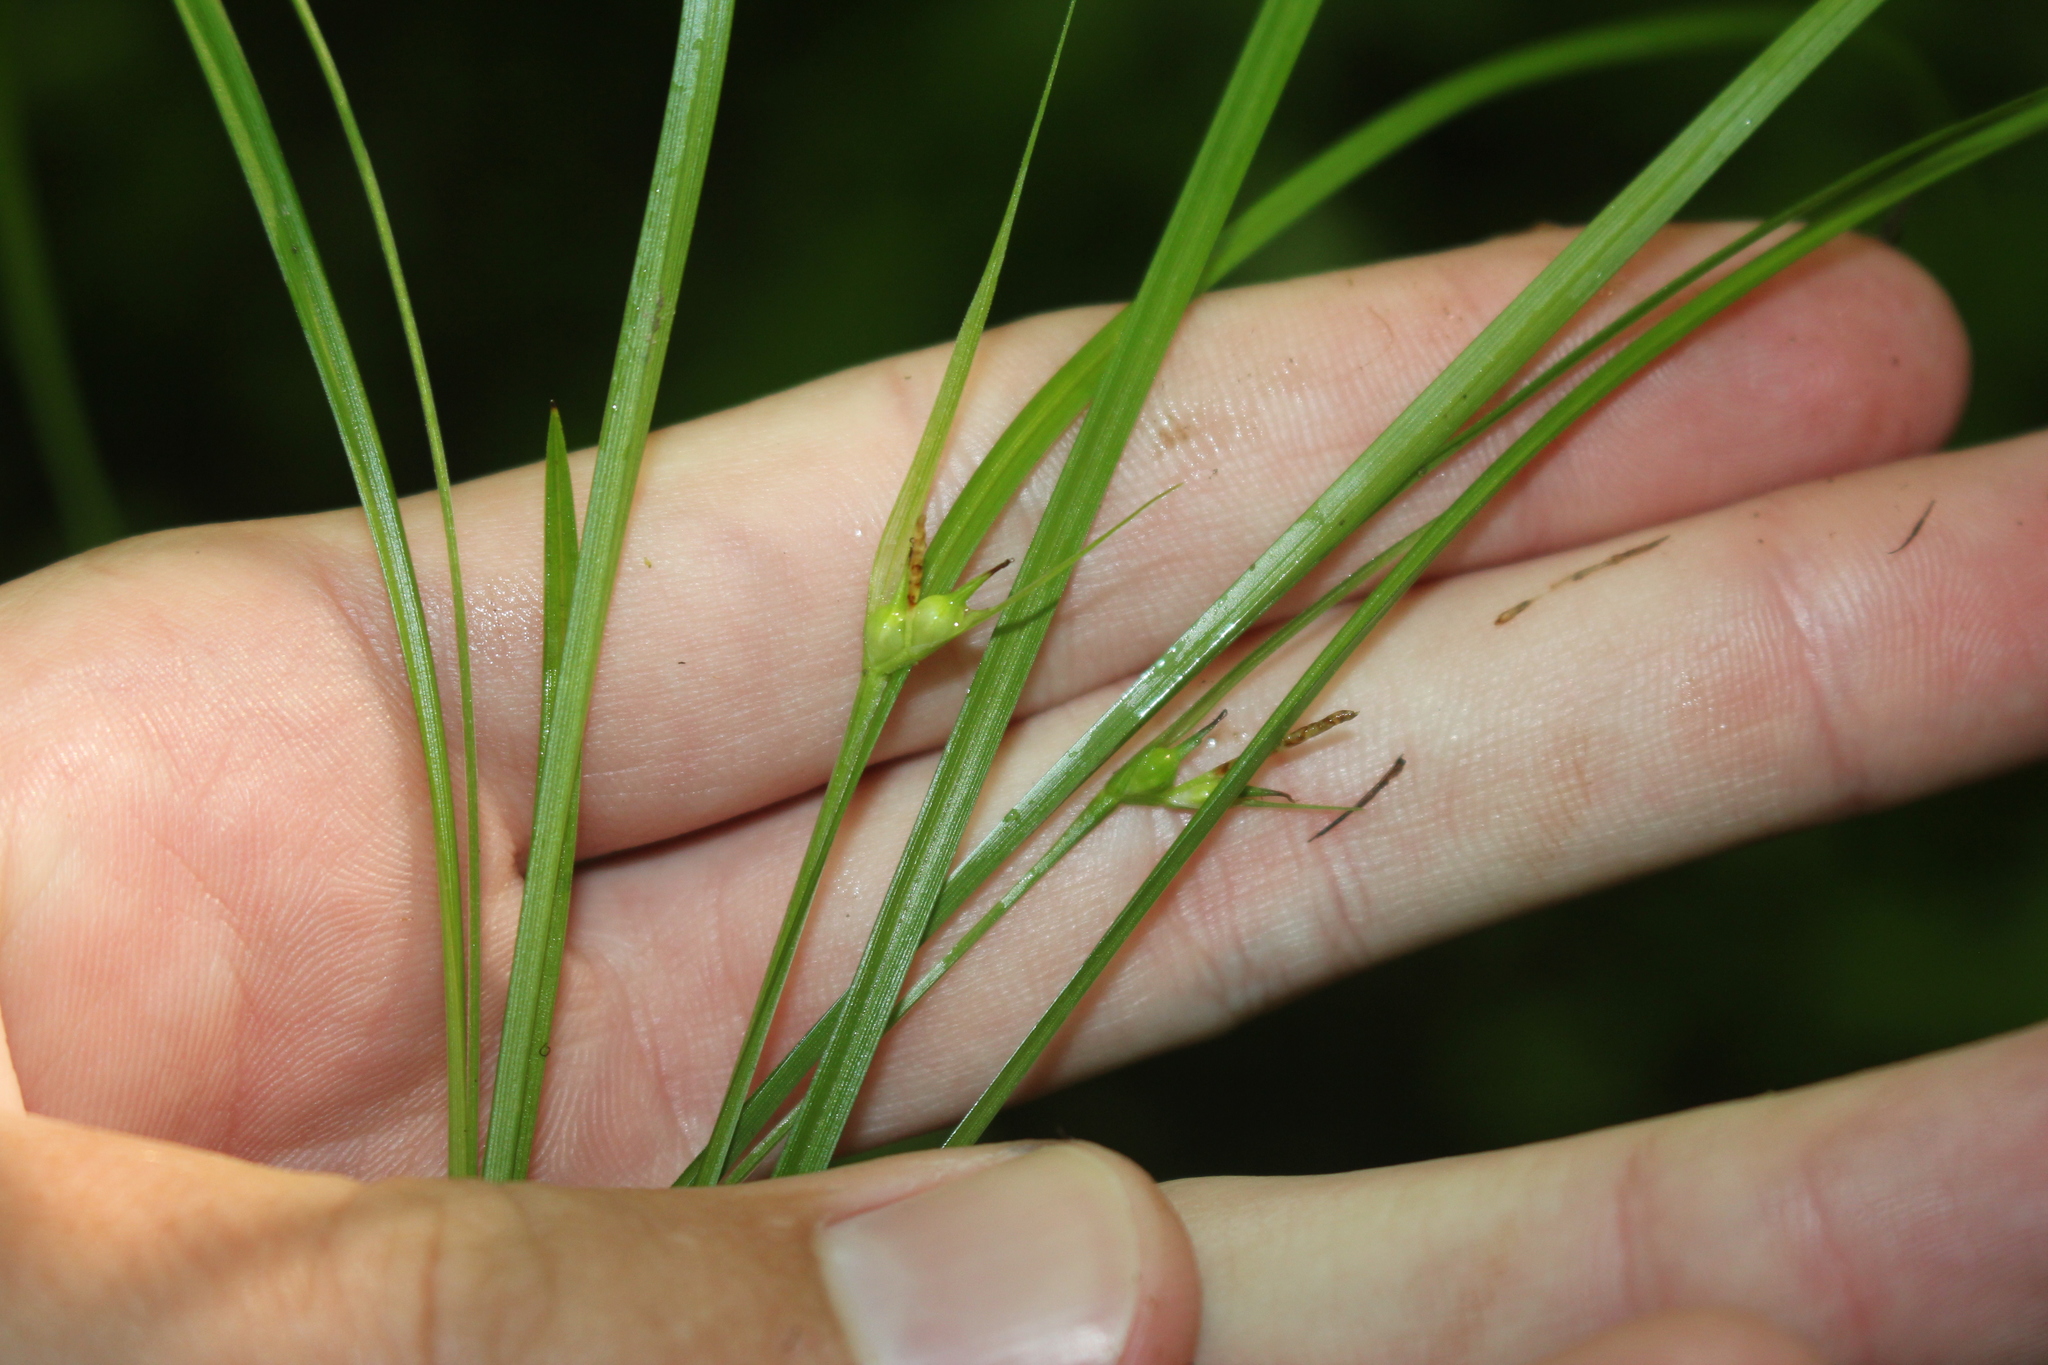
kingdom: Plantae
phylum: Tracheophyta
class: Liliopsida
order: Poales
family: Cyperaceae
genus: Carex
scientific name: Carex jamesii
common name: Grass sedge
